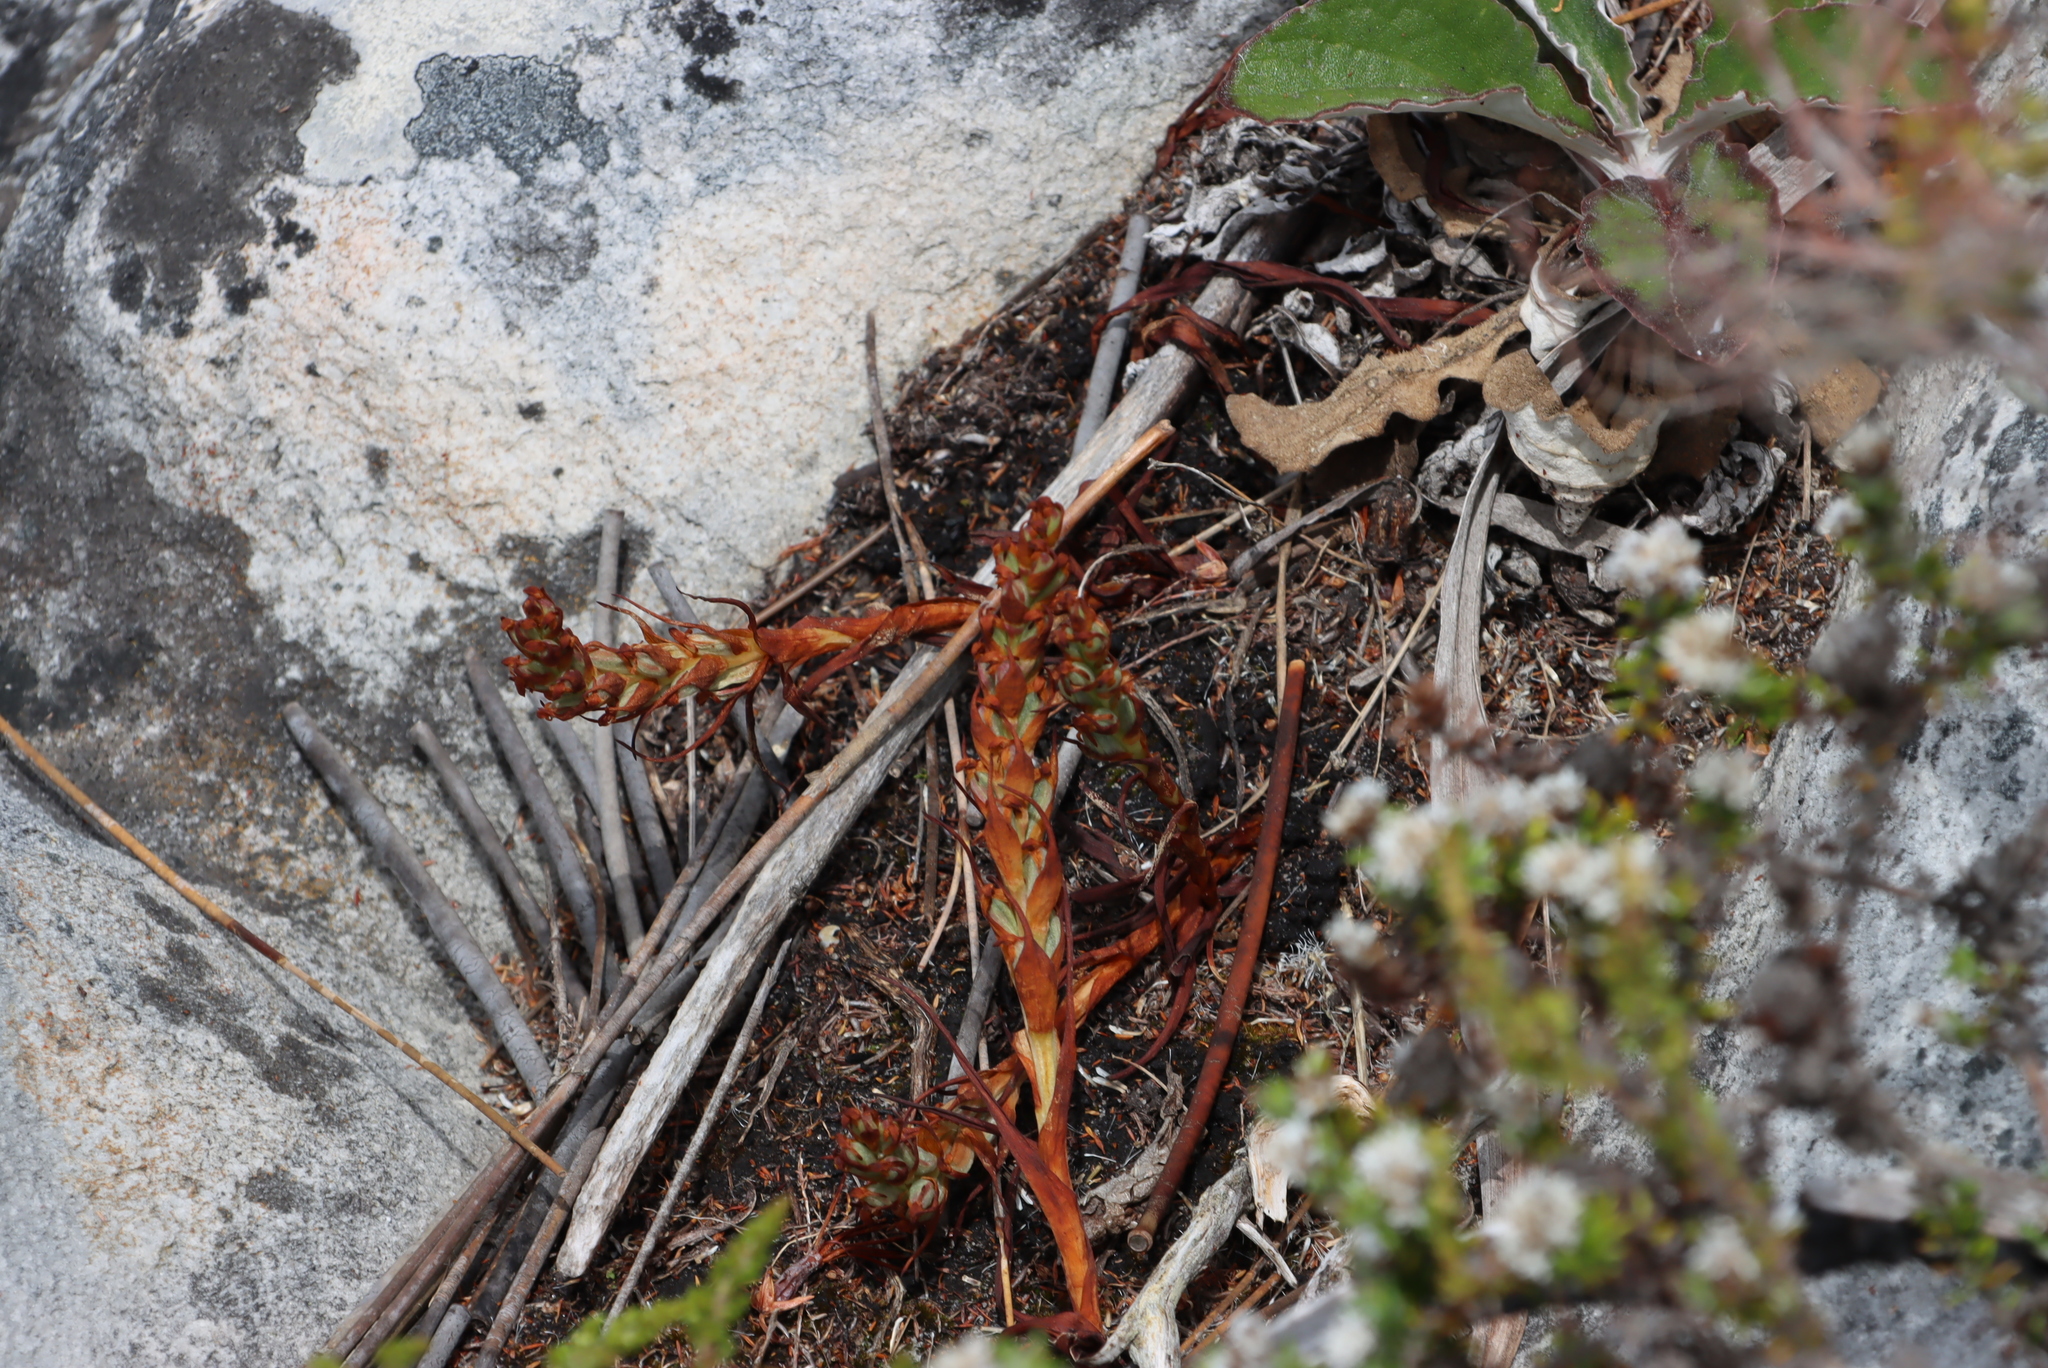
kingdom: Plantae
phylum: Tracheophyta
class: Liliopsida
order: Asparagales
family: Orchidaceae
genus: Disa
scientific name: Disa bracteata
